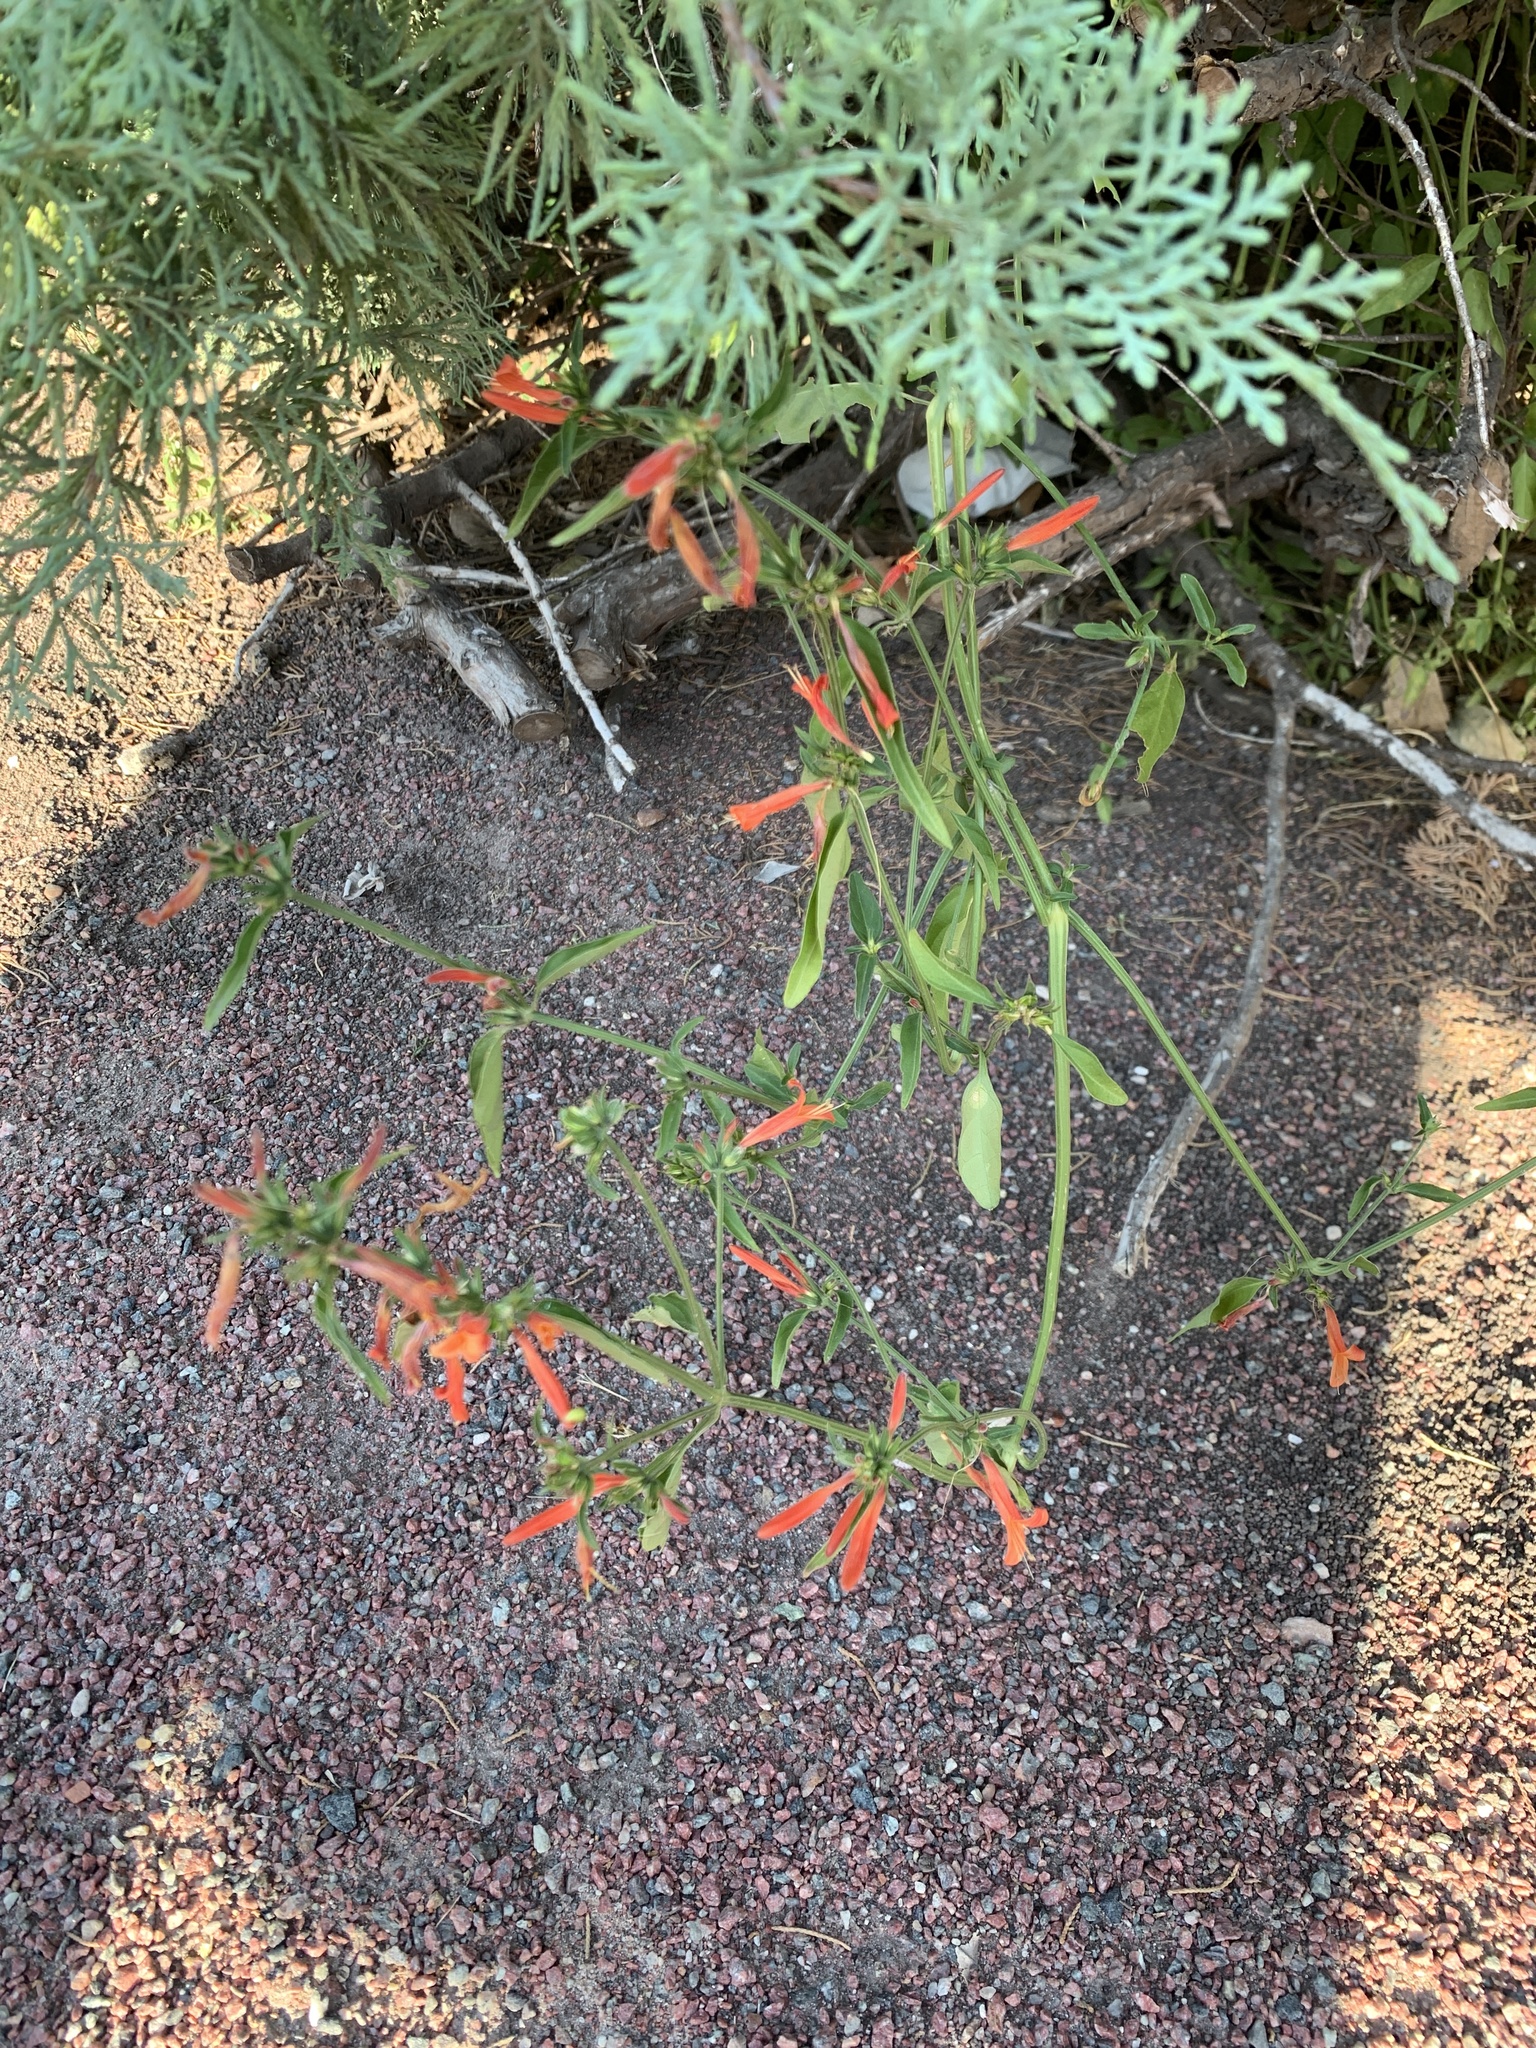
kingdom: Plantae
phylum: Tracheophyta
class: Magnoliopsida
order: Lamiales
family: Acanthaceae
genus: Dicliptera
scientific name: Dicliptera squarrosa
